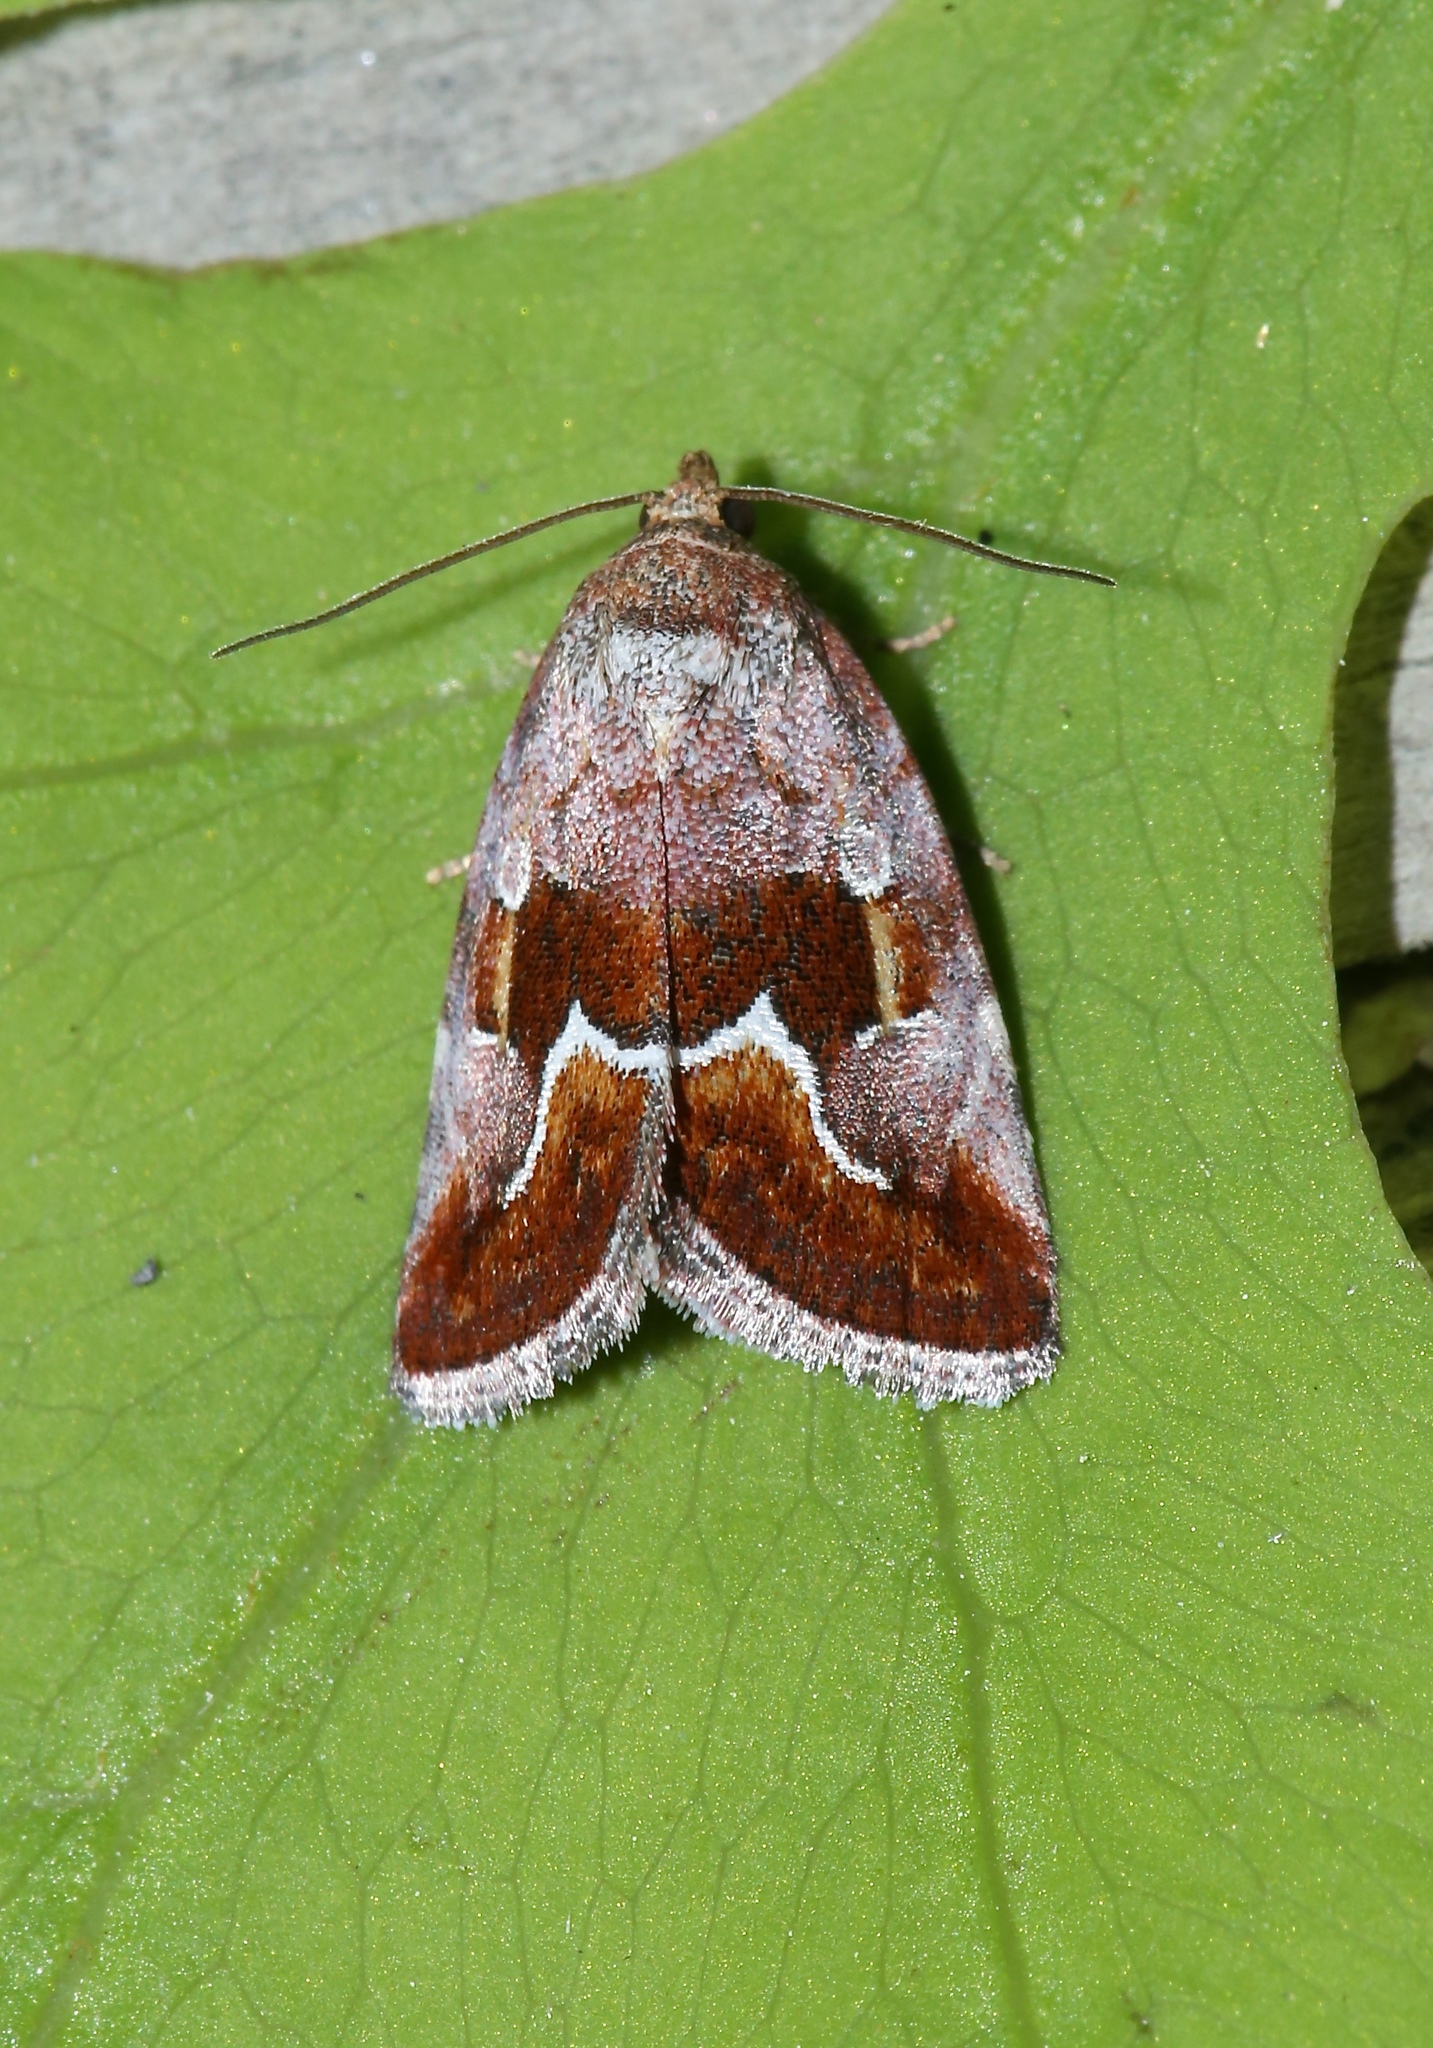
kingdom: Animalia
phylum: Arthropoda
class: Insecta
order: Lepidoptera
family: Noctuidae
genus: Deltote
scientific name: Deltote bellicula
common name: Bog glyph
